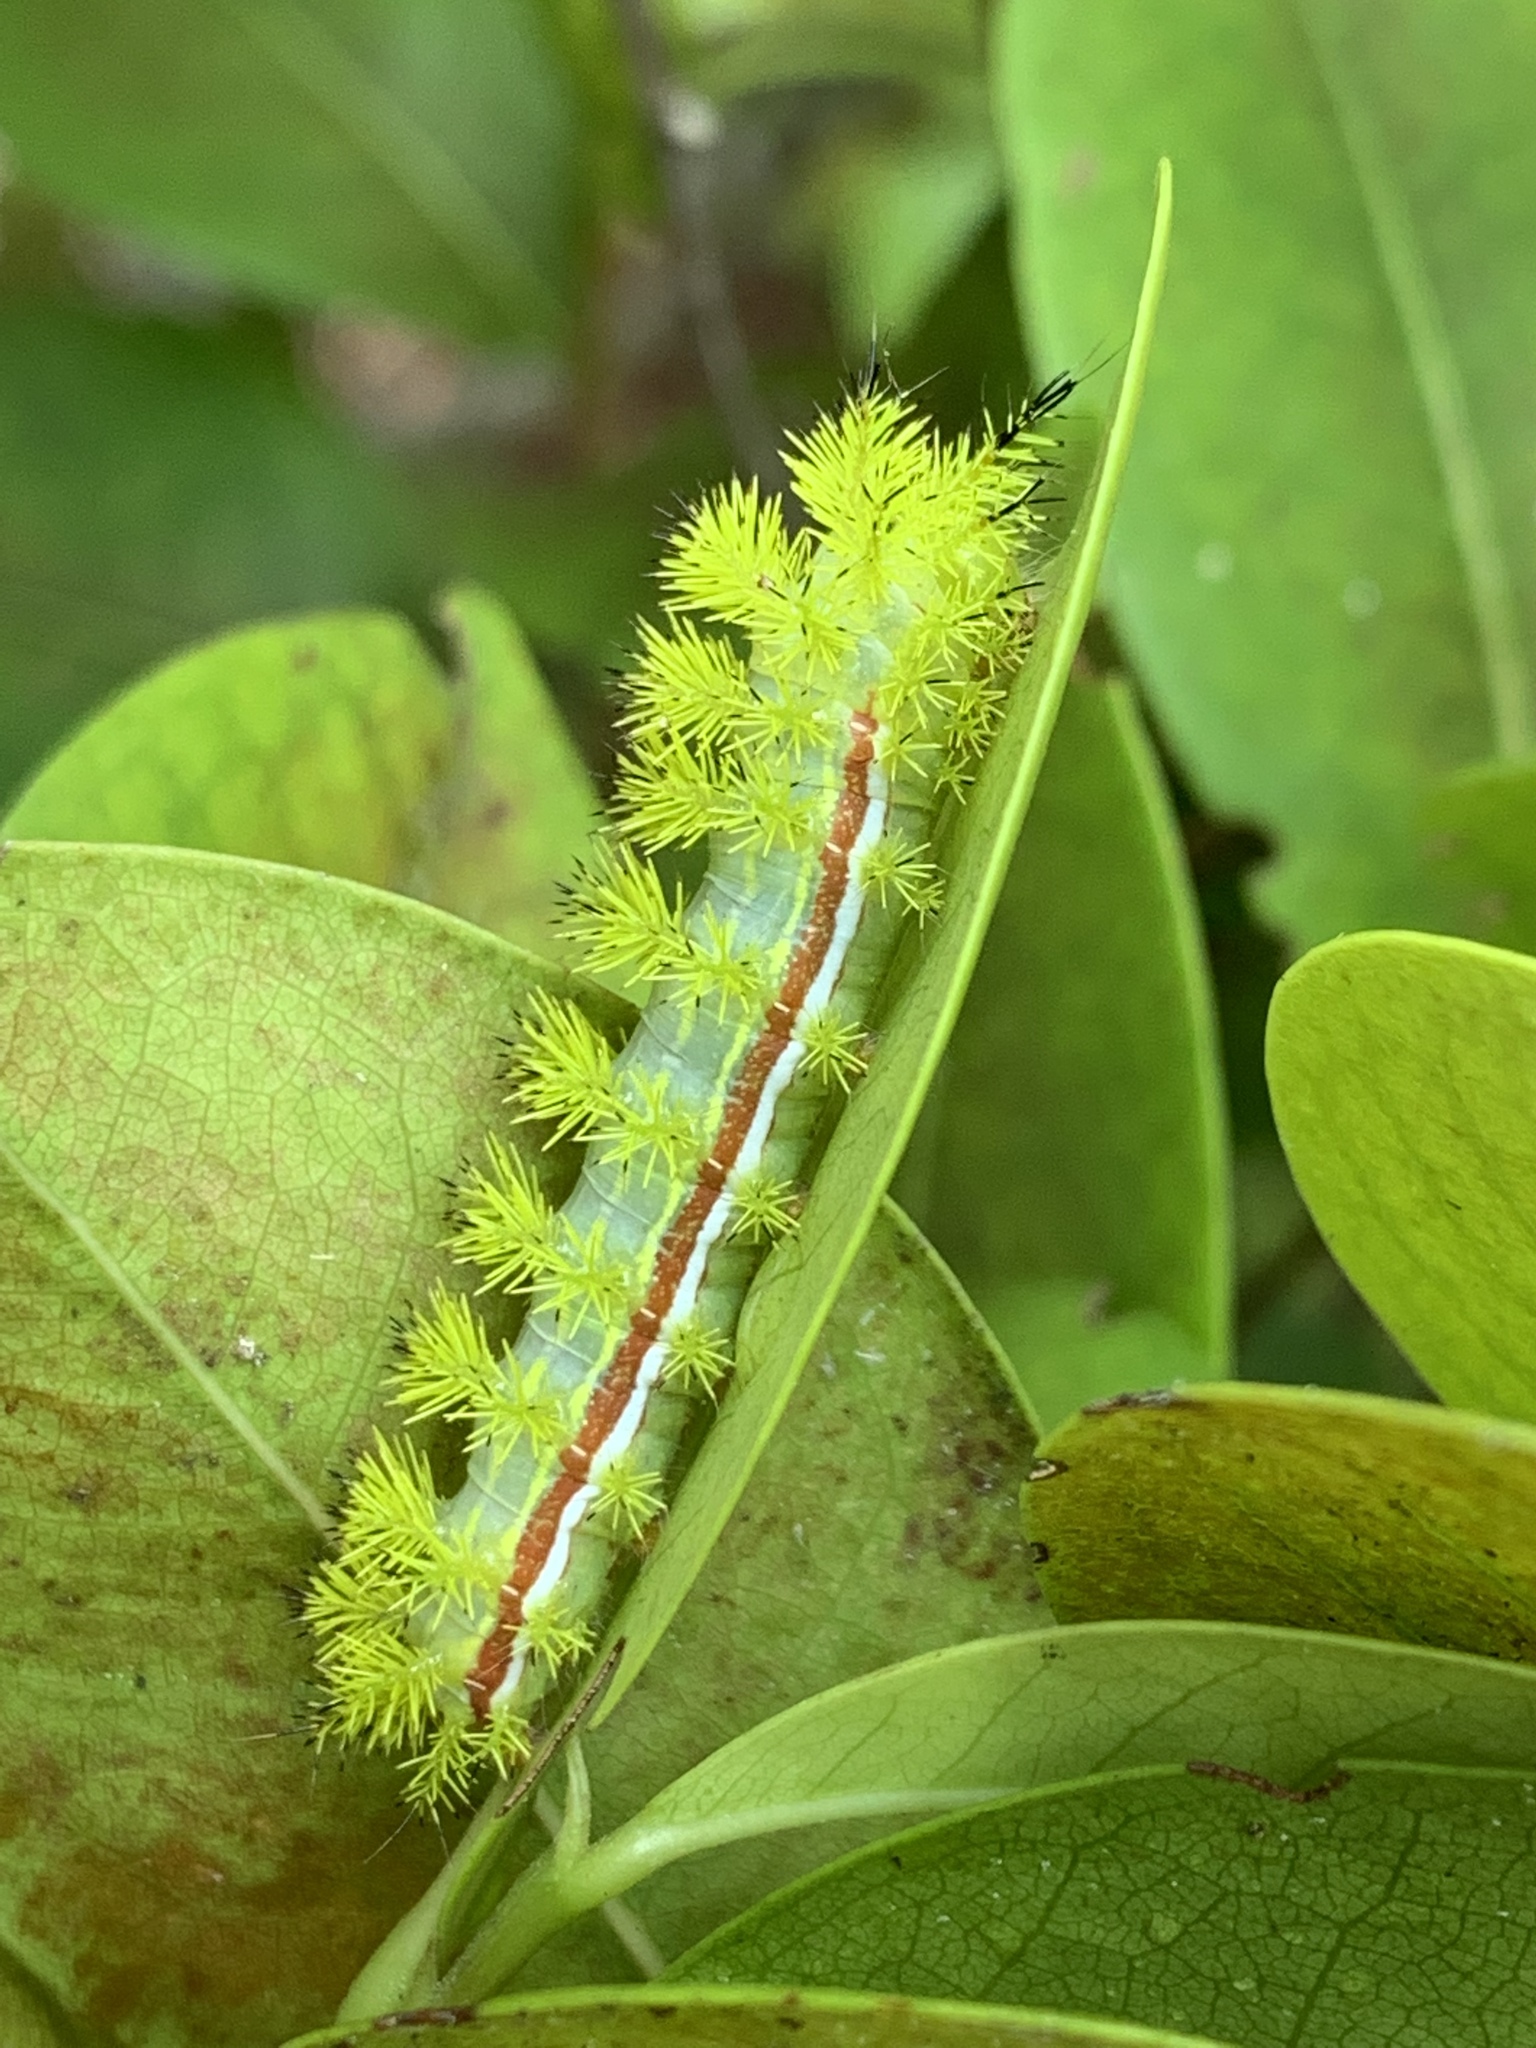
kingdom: Animalia
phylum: Arthropoda
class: Insecta
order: Lepidoptera
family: Saturniidae
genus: Automeris
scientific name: Automeris io
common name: Io moth
